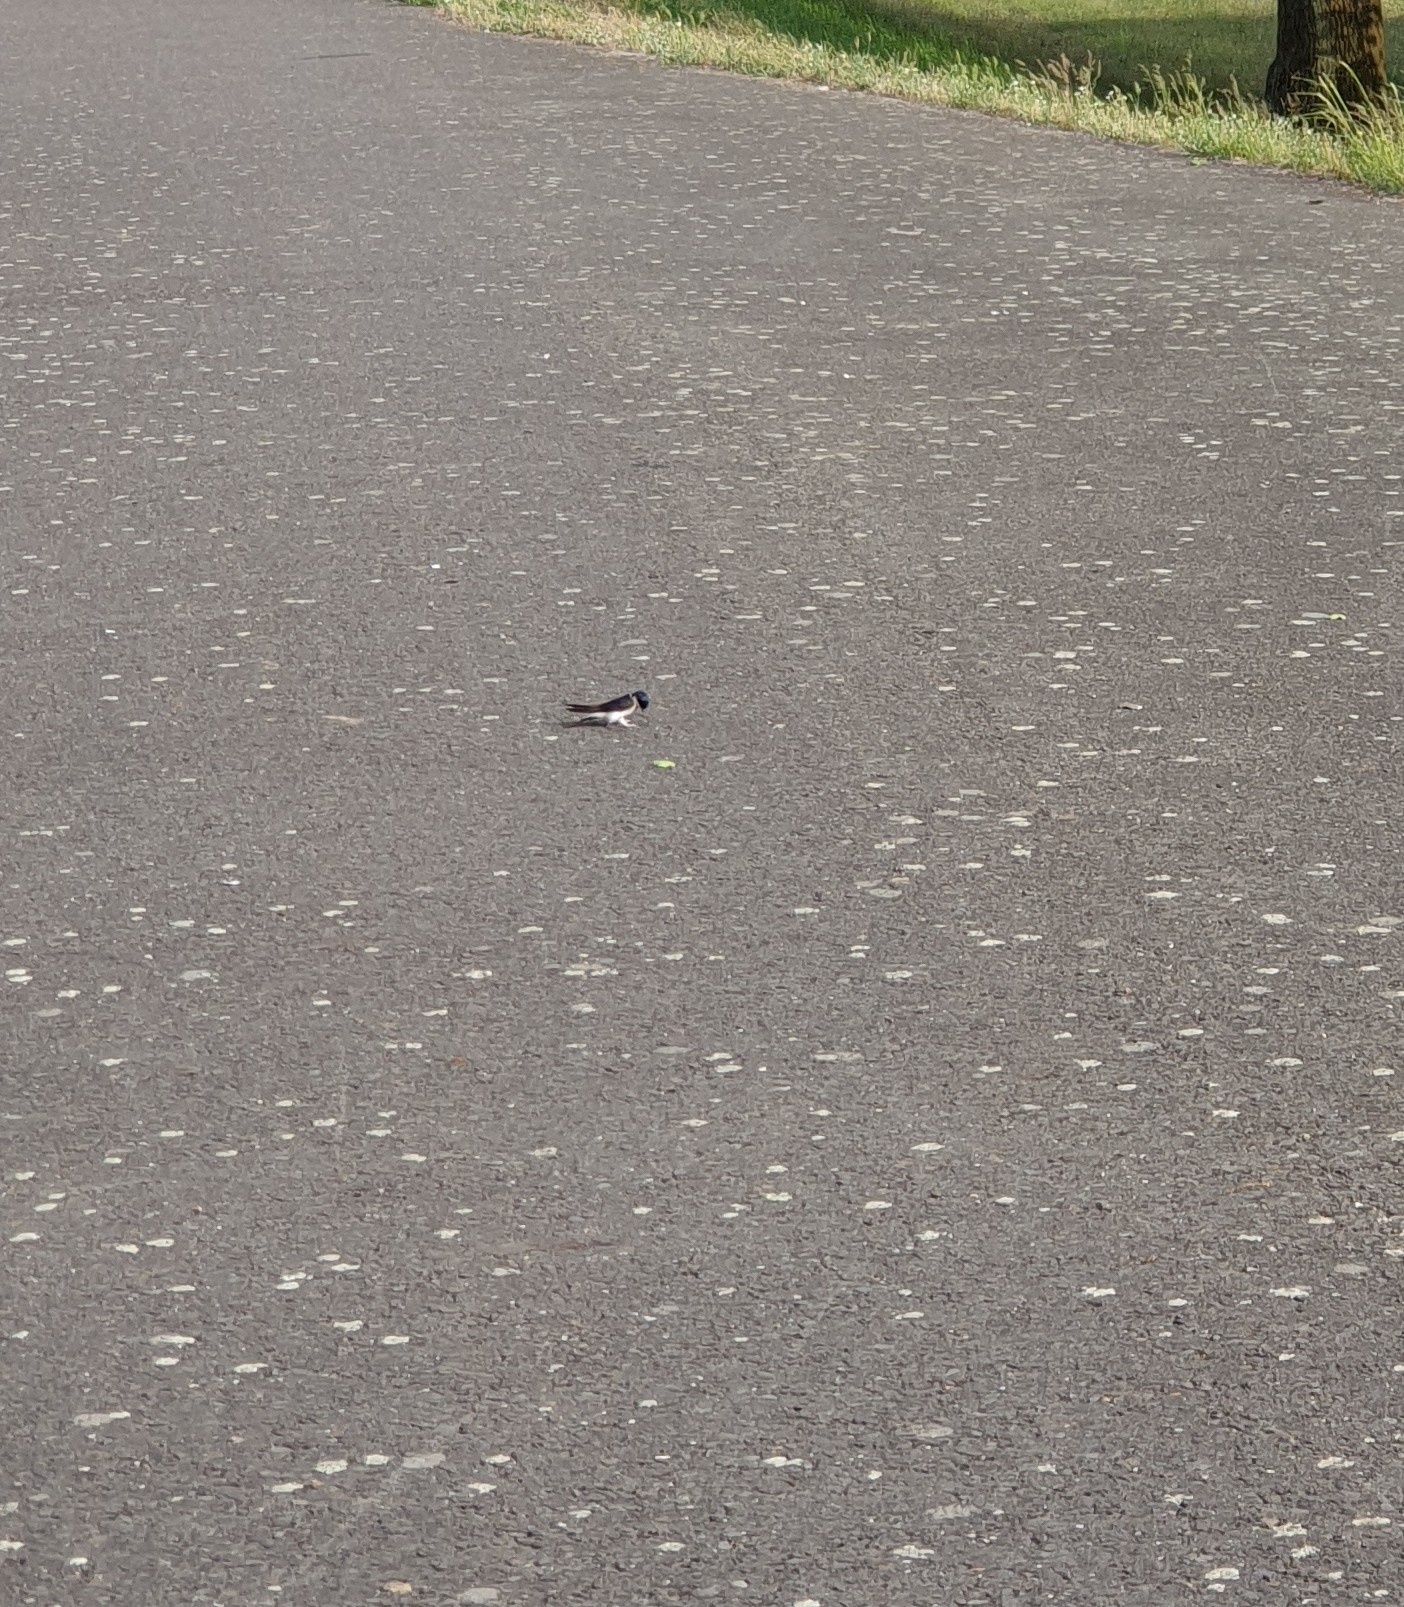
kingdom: Animalia
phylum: Chordata
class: Aves
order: Passeriformes
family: Hirundinidae
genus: Delichon
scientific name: Delichon urbicum
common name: Common house martin
